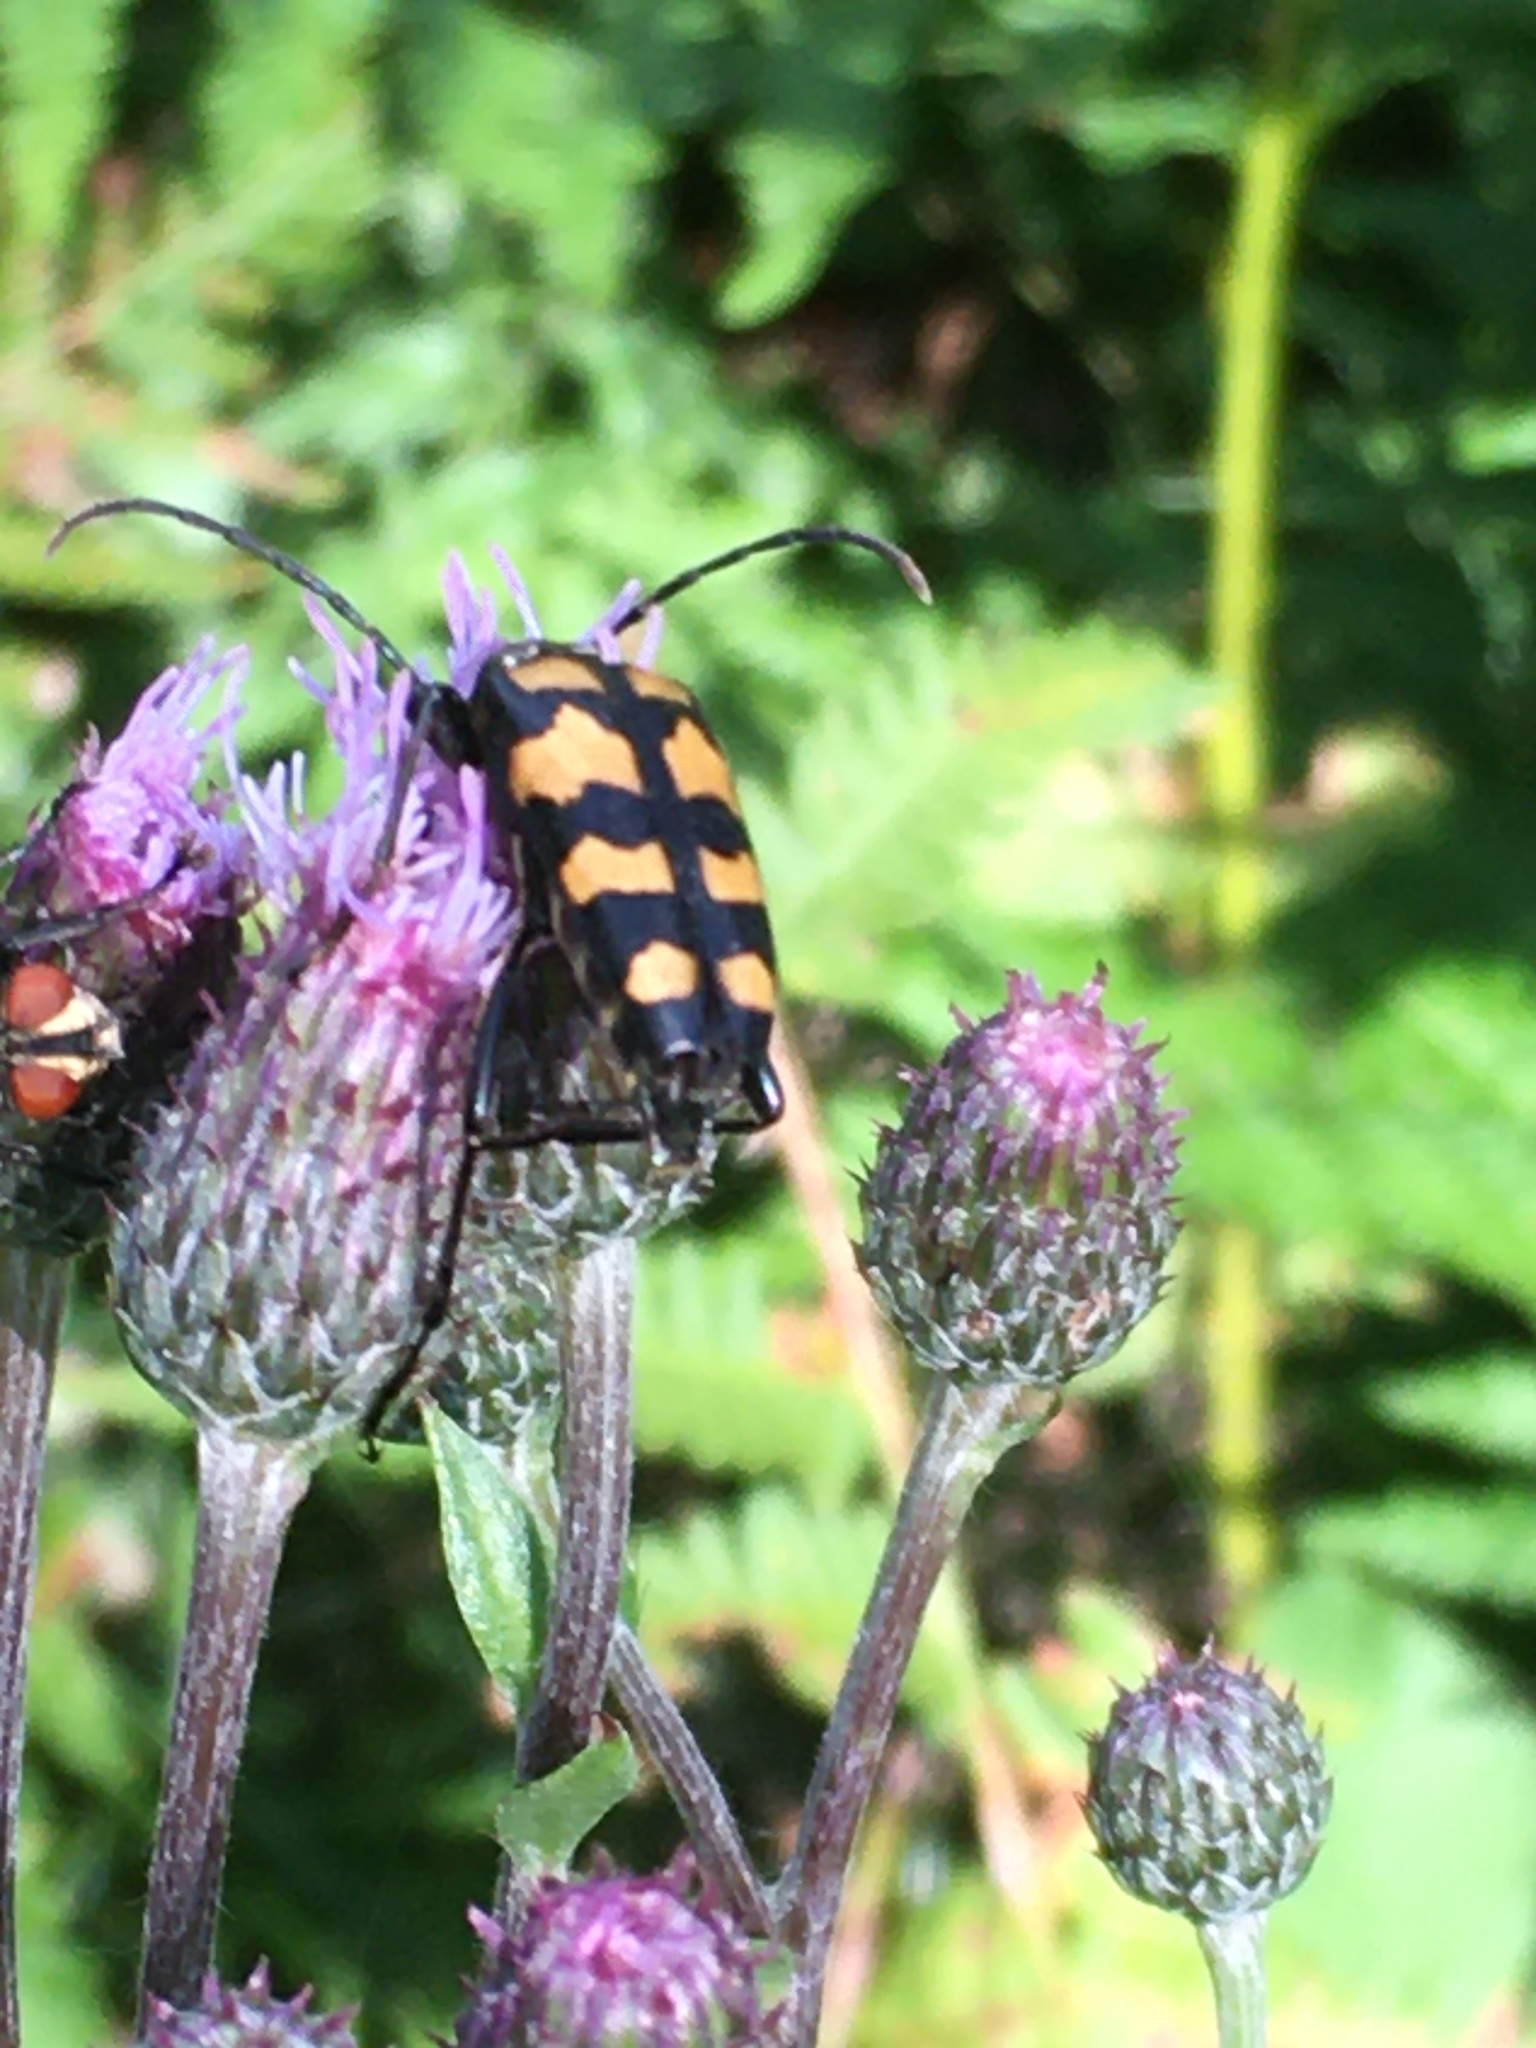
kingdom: Animalia
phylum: Arthropoda
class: Insecta
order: Coleoptera
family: Cerambycidae
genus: Leptura
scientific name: Leptura quadrifasciata
